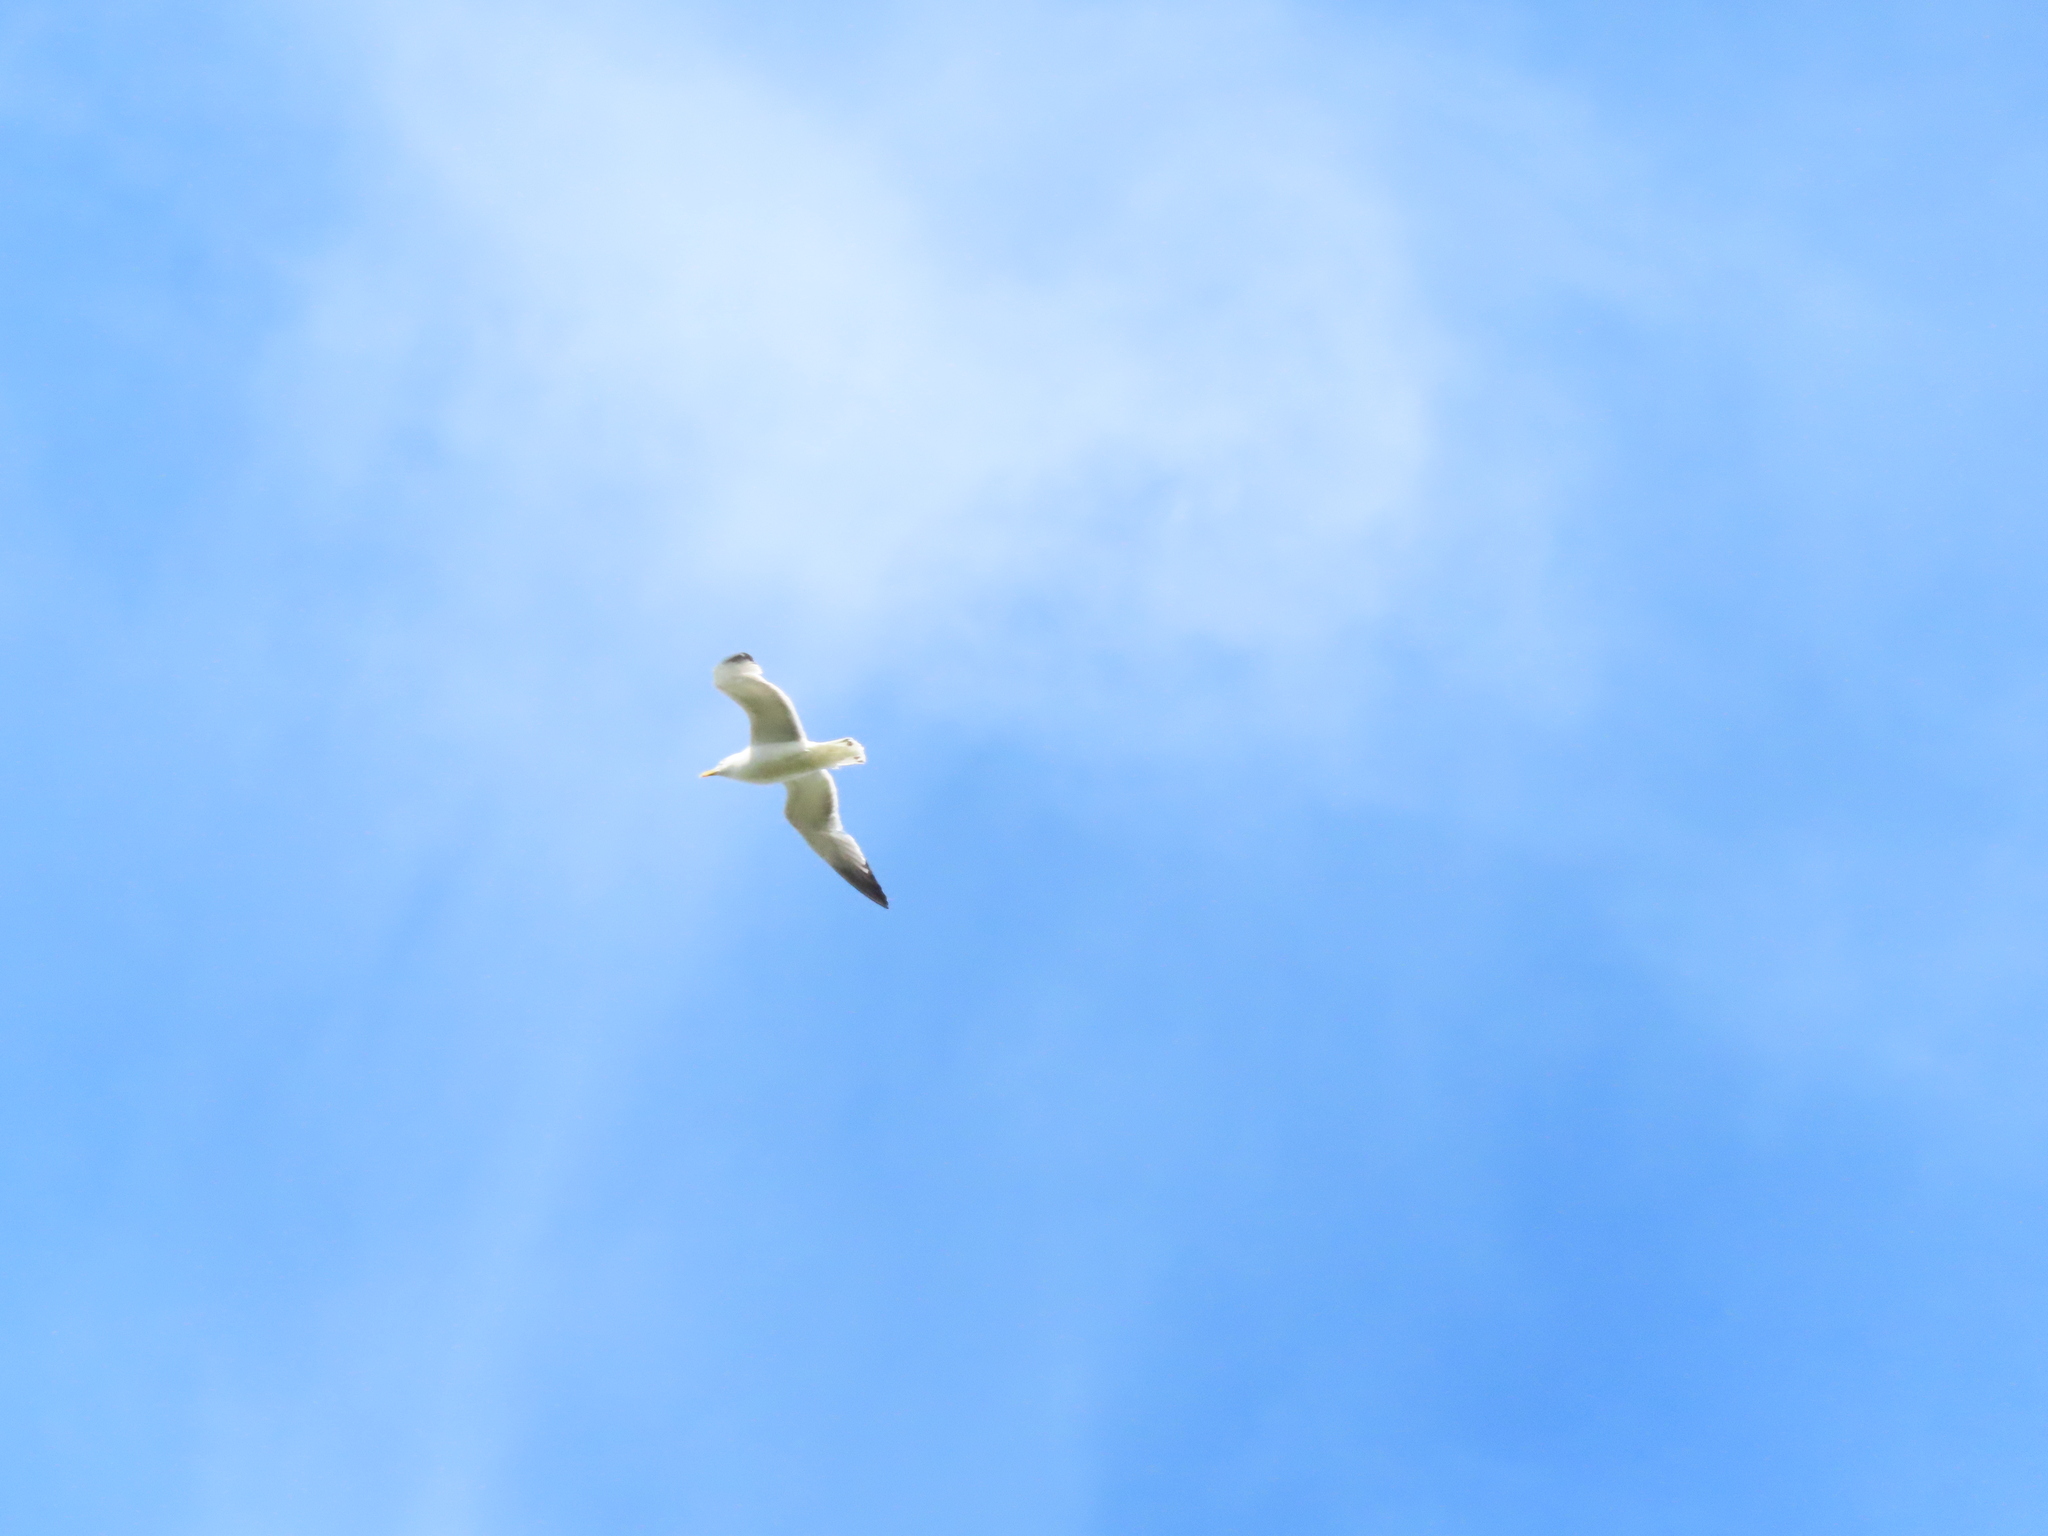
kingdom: Animalia
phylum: Chordata
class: Aves
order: Charadriiformes
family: Laridae
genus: Larus
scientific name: Larus argentatus
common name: Herring gull
